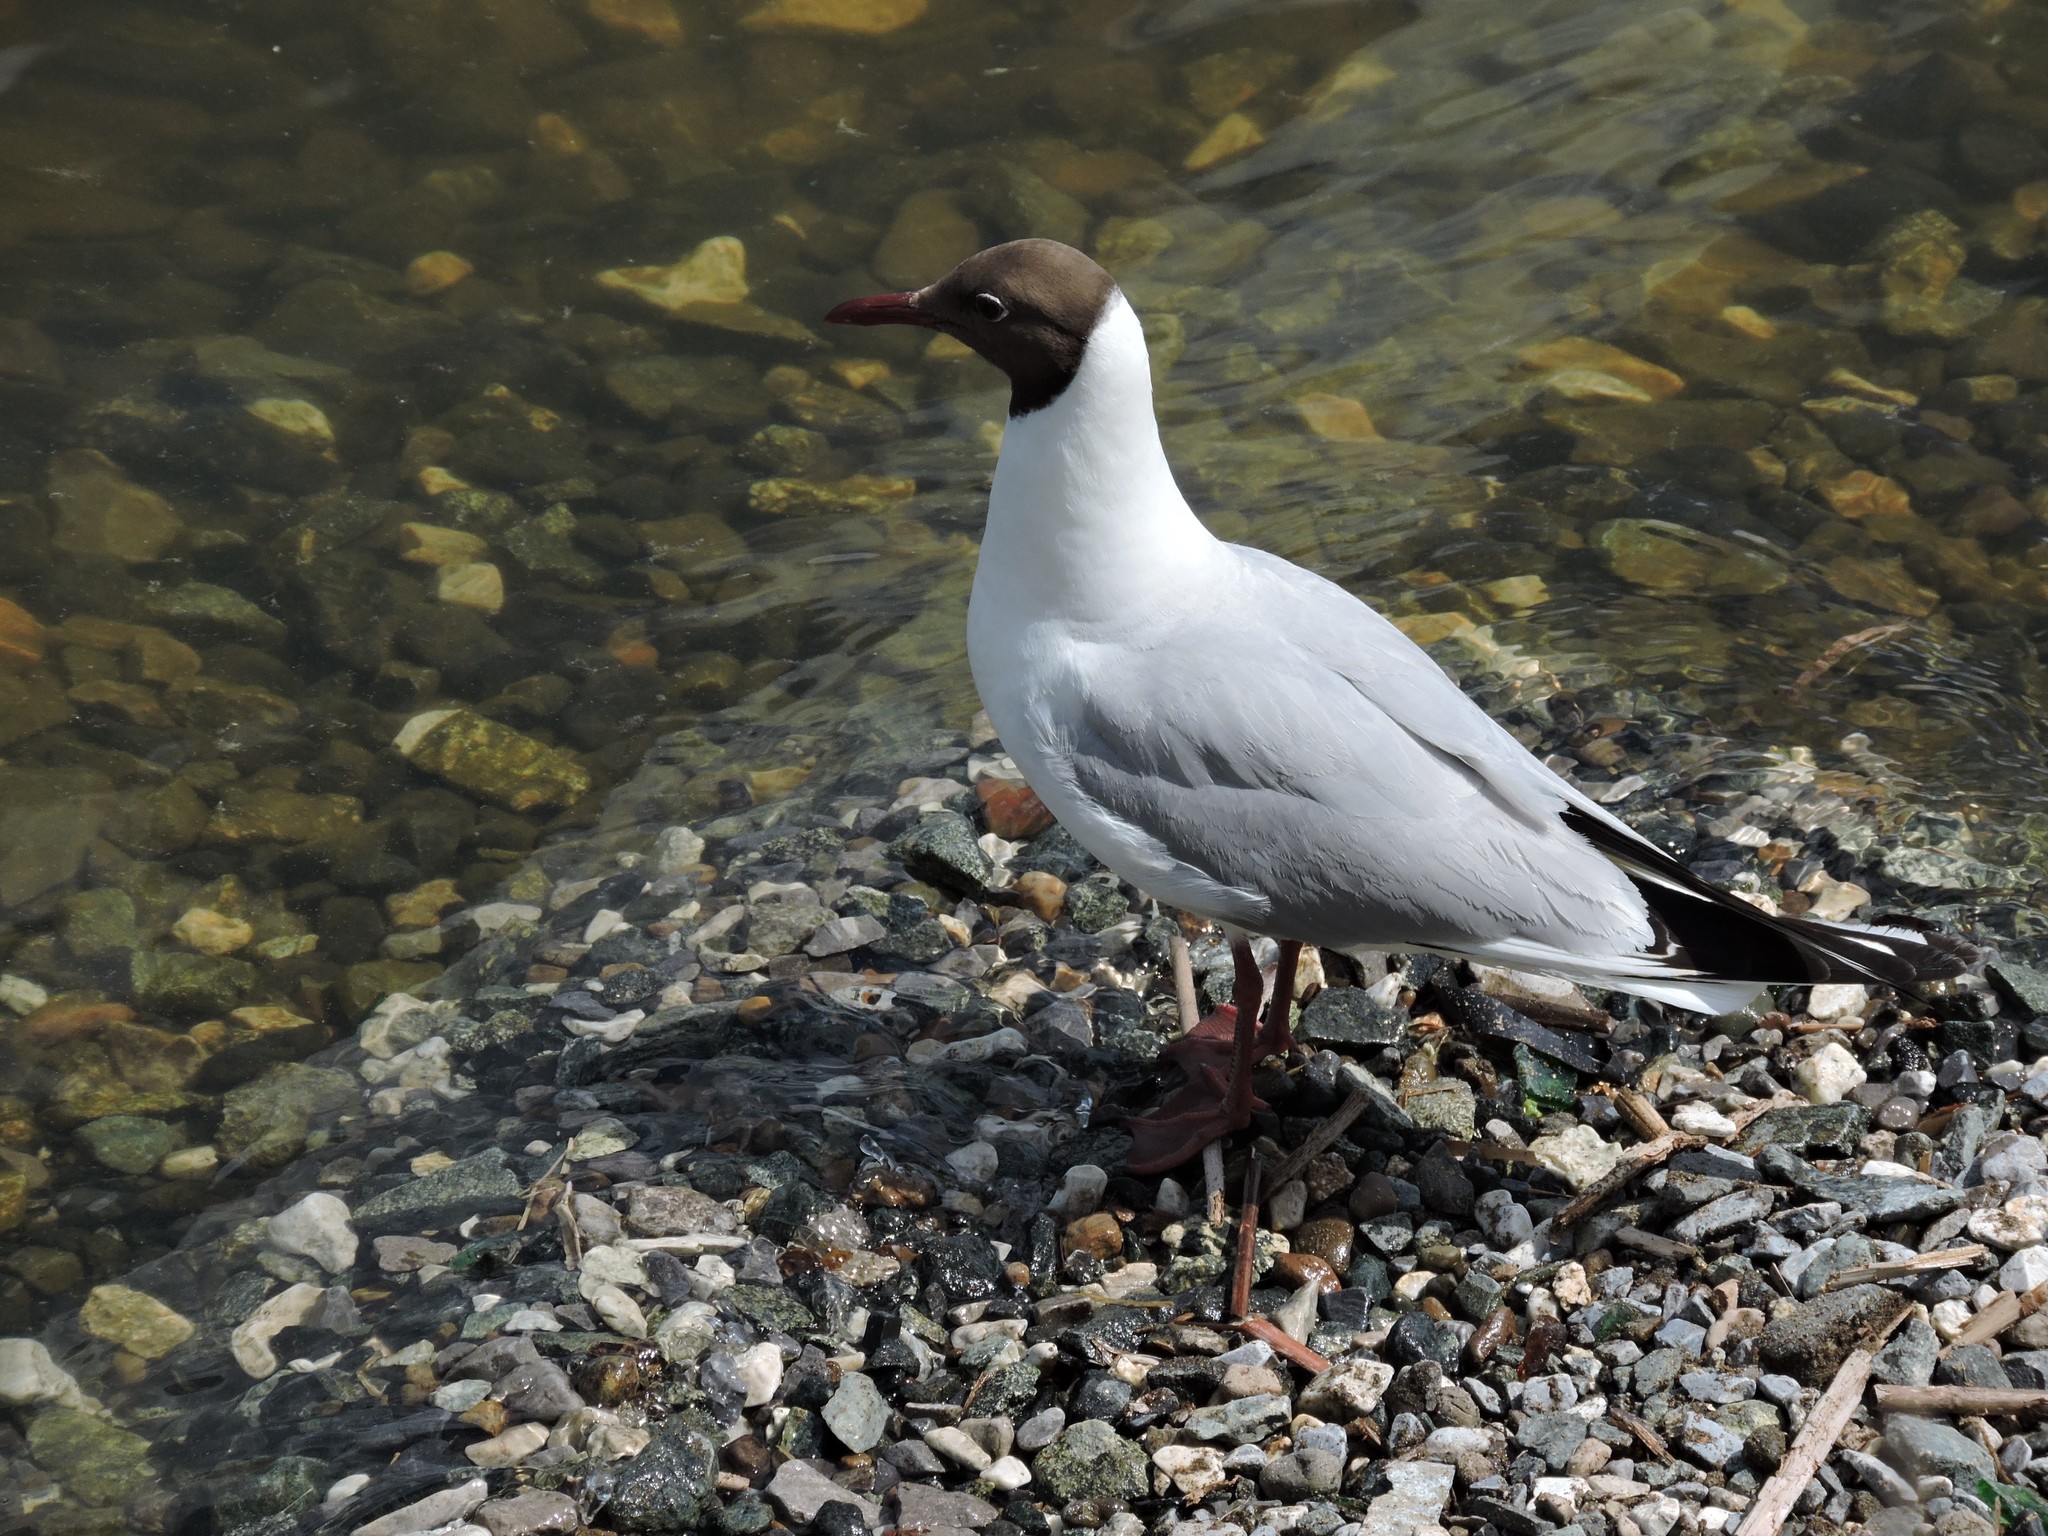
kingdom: Animalia
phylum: Chordata
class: Aves
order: Charadriiformes
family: Laridae
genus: Chroicocephalus
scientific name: Chroicocephalus ridibundus
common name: Black-headed gull
